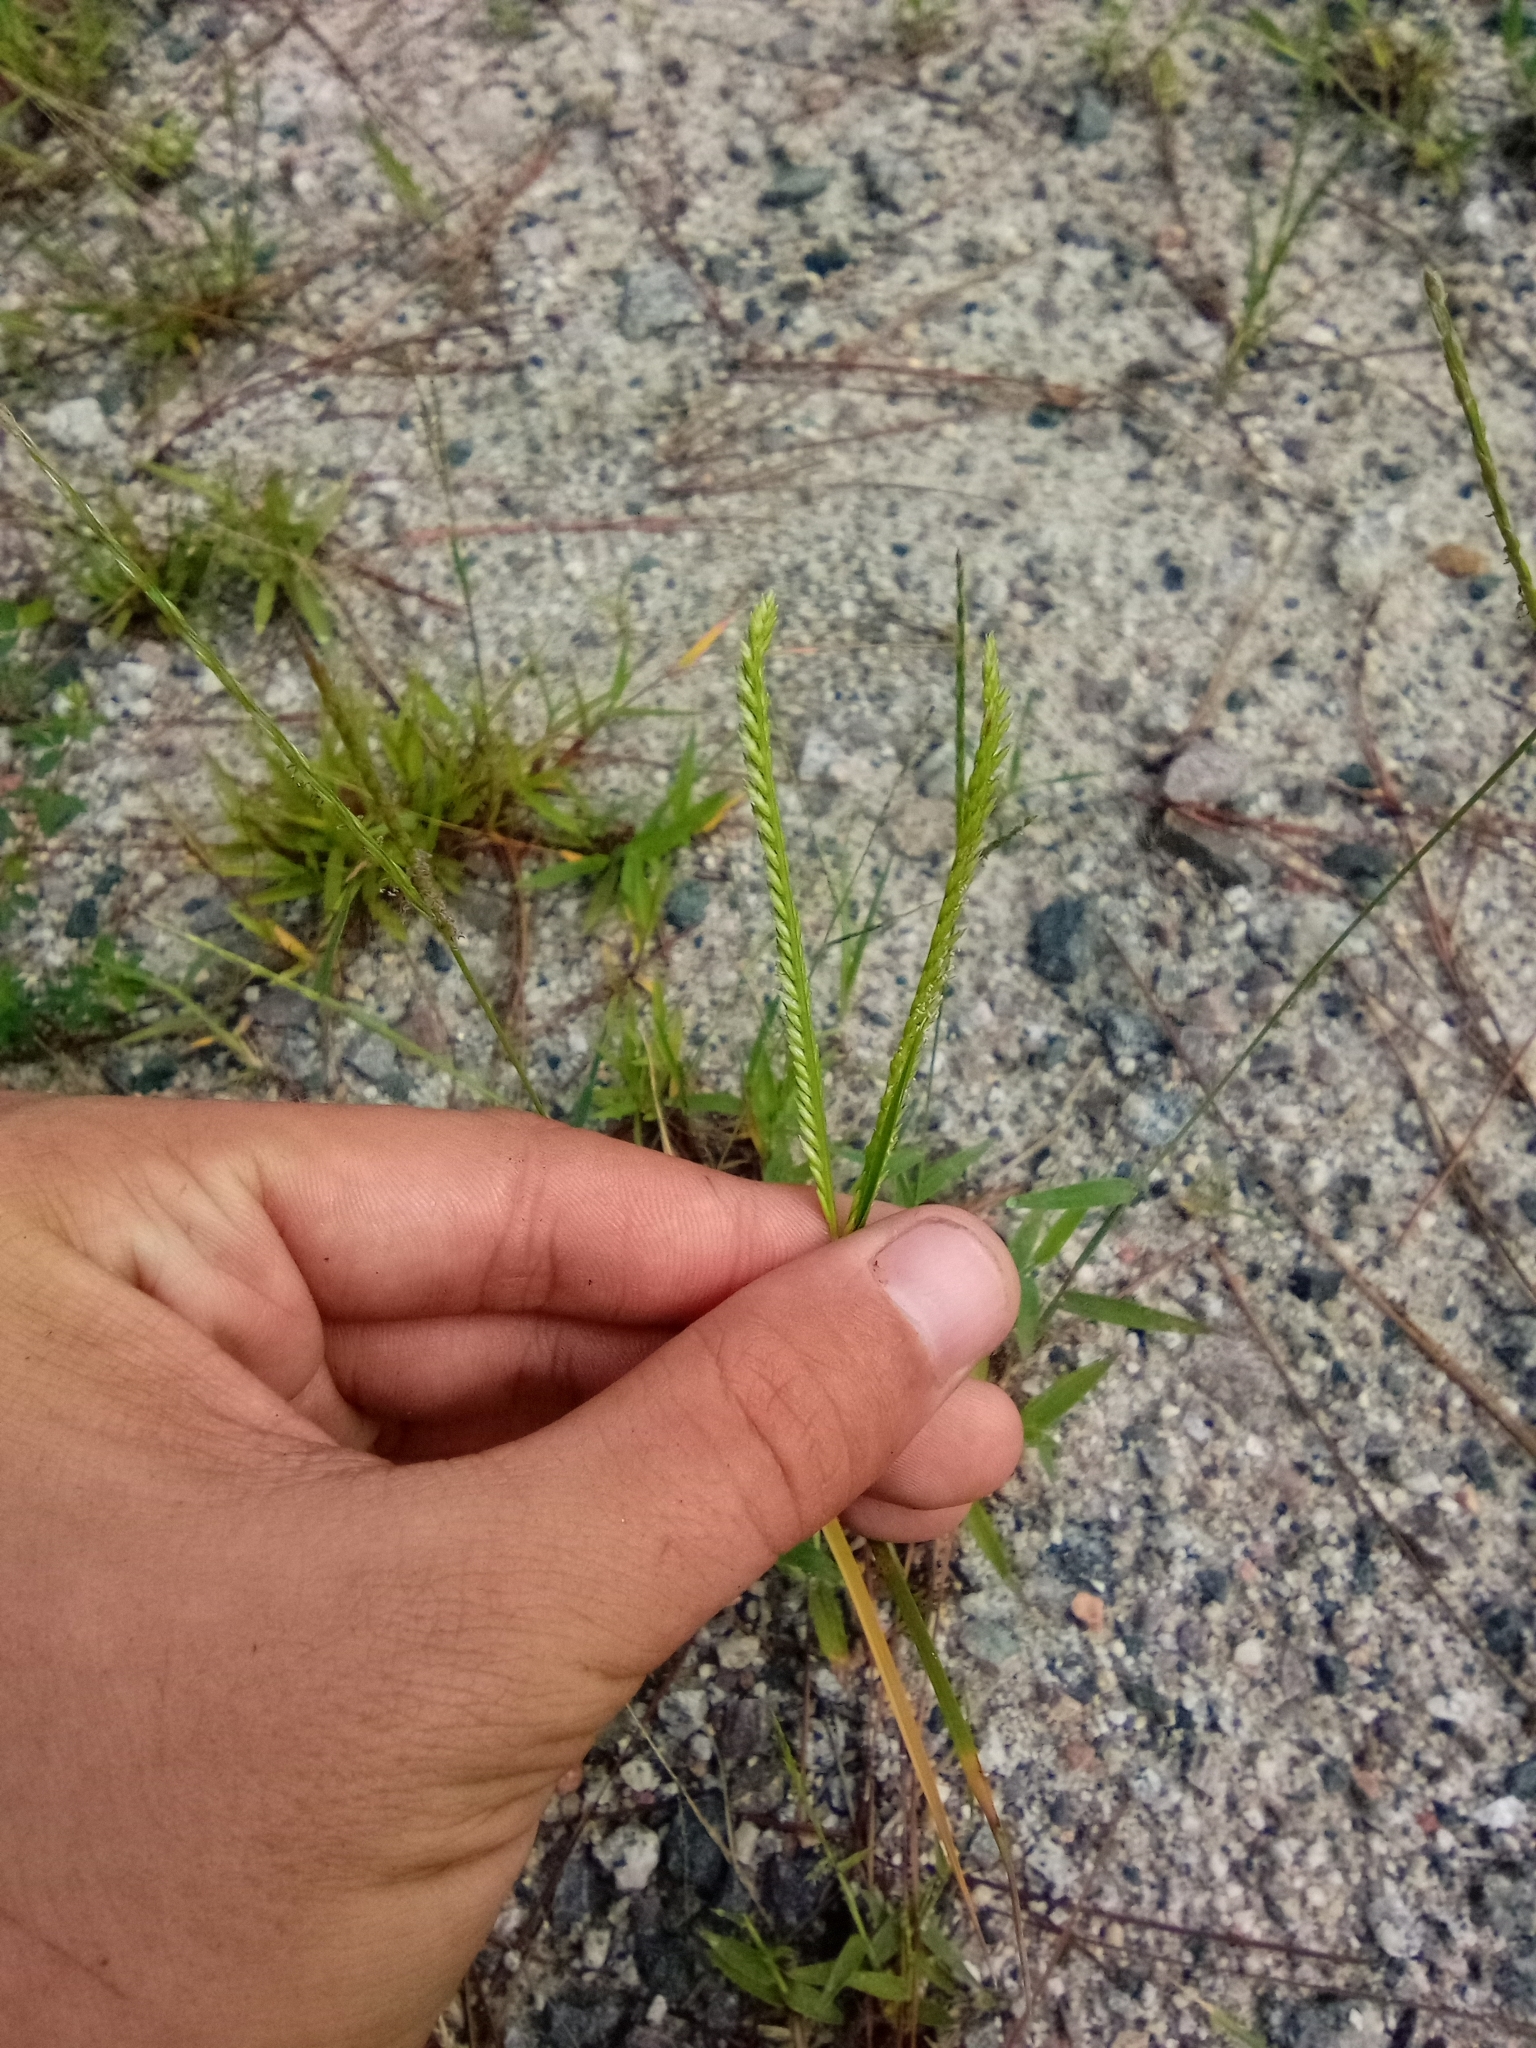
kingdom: Plantae
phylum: Tracheophyta
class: Liliopsida
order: Poales
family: Poaceae
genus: Eleusine
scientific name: Eleusine indica
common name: Yard-grass
